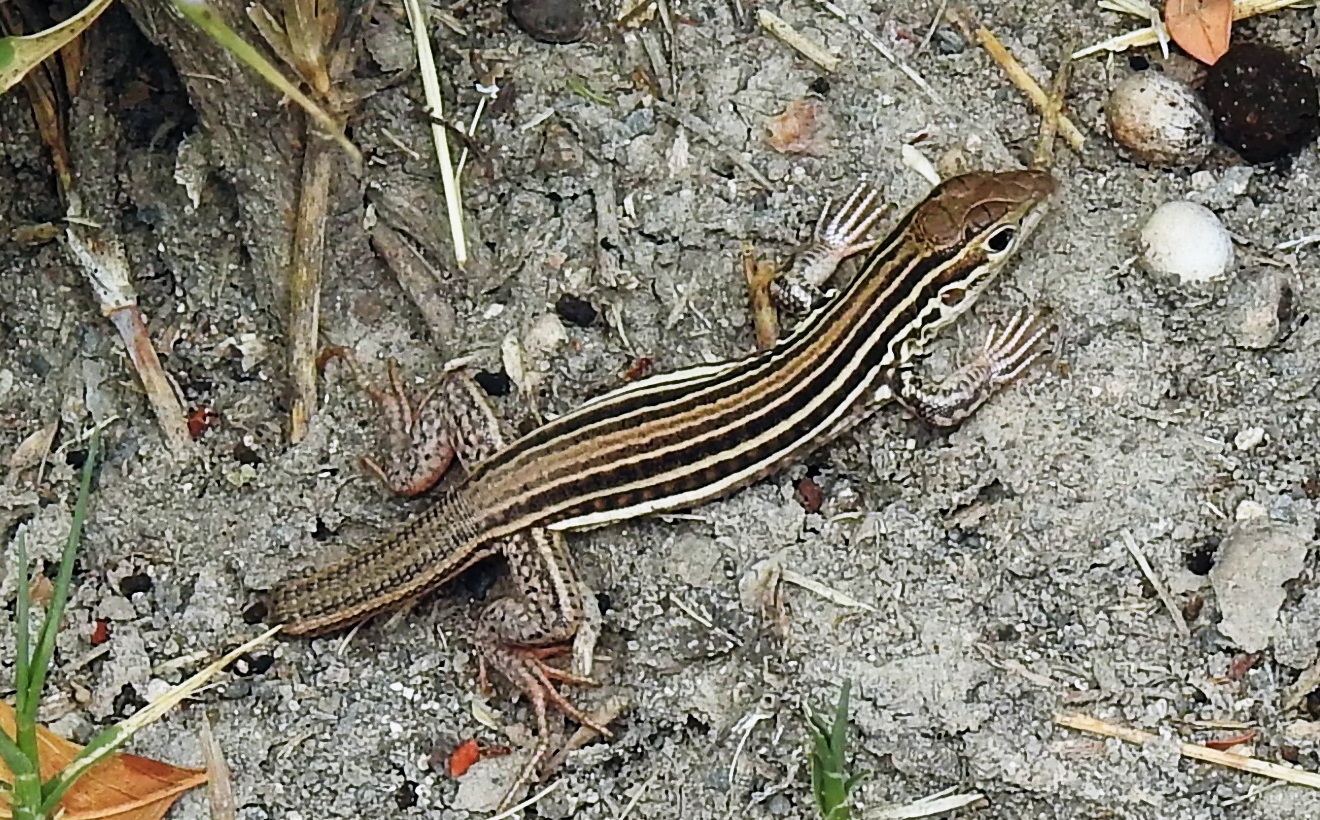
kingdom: Animalia
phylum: Chordata
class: Squamata
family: Teiidae
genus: Aspidoscelis
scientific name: Aspidoscelis gularis
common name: Eastern spotted whiptail
